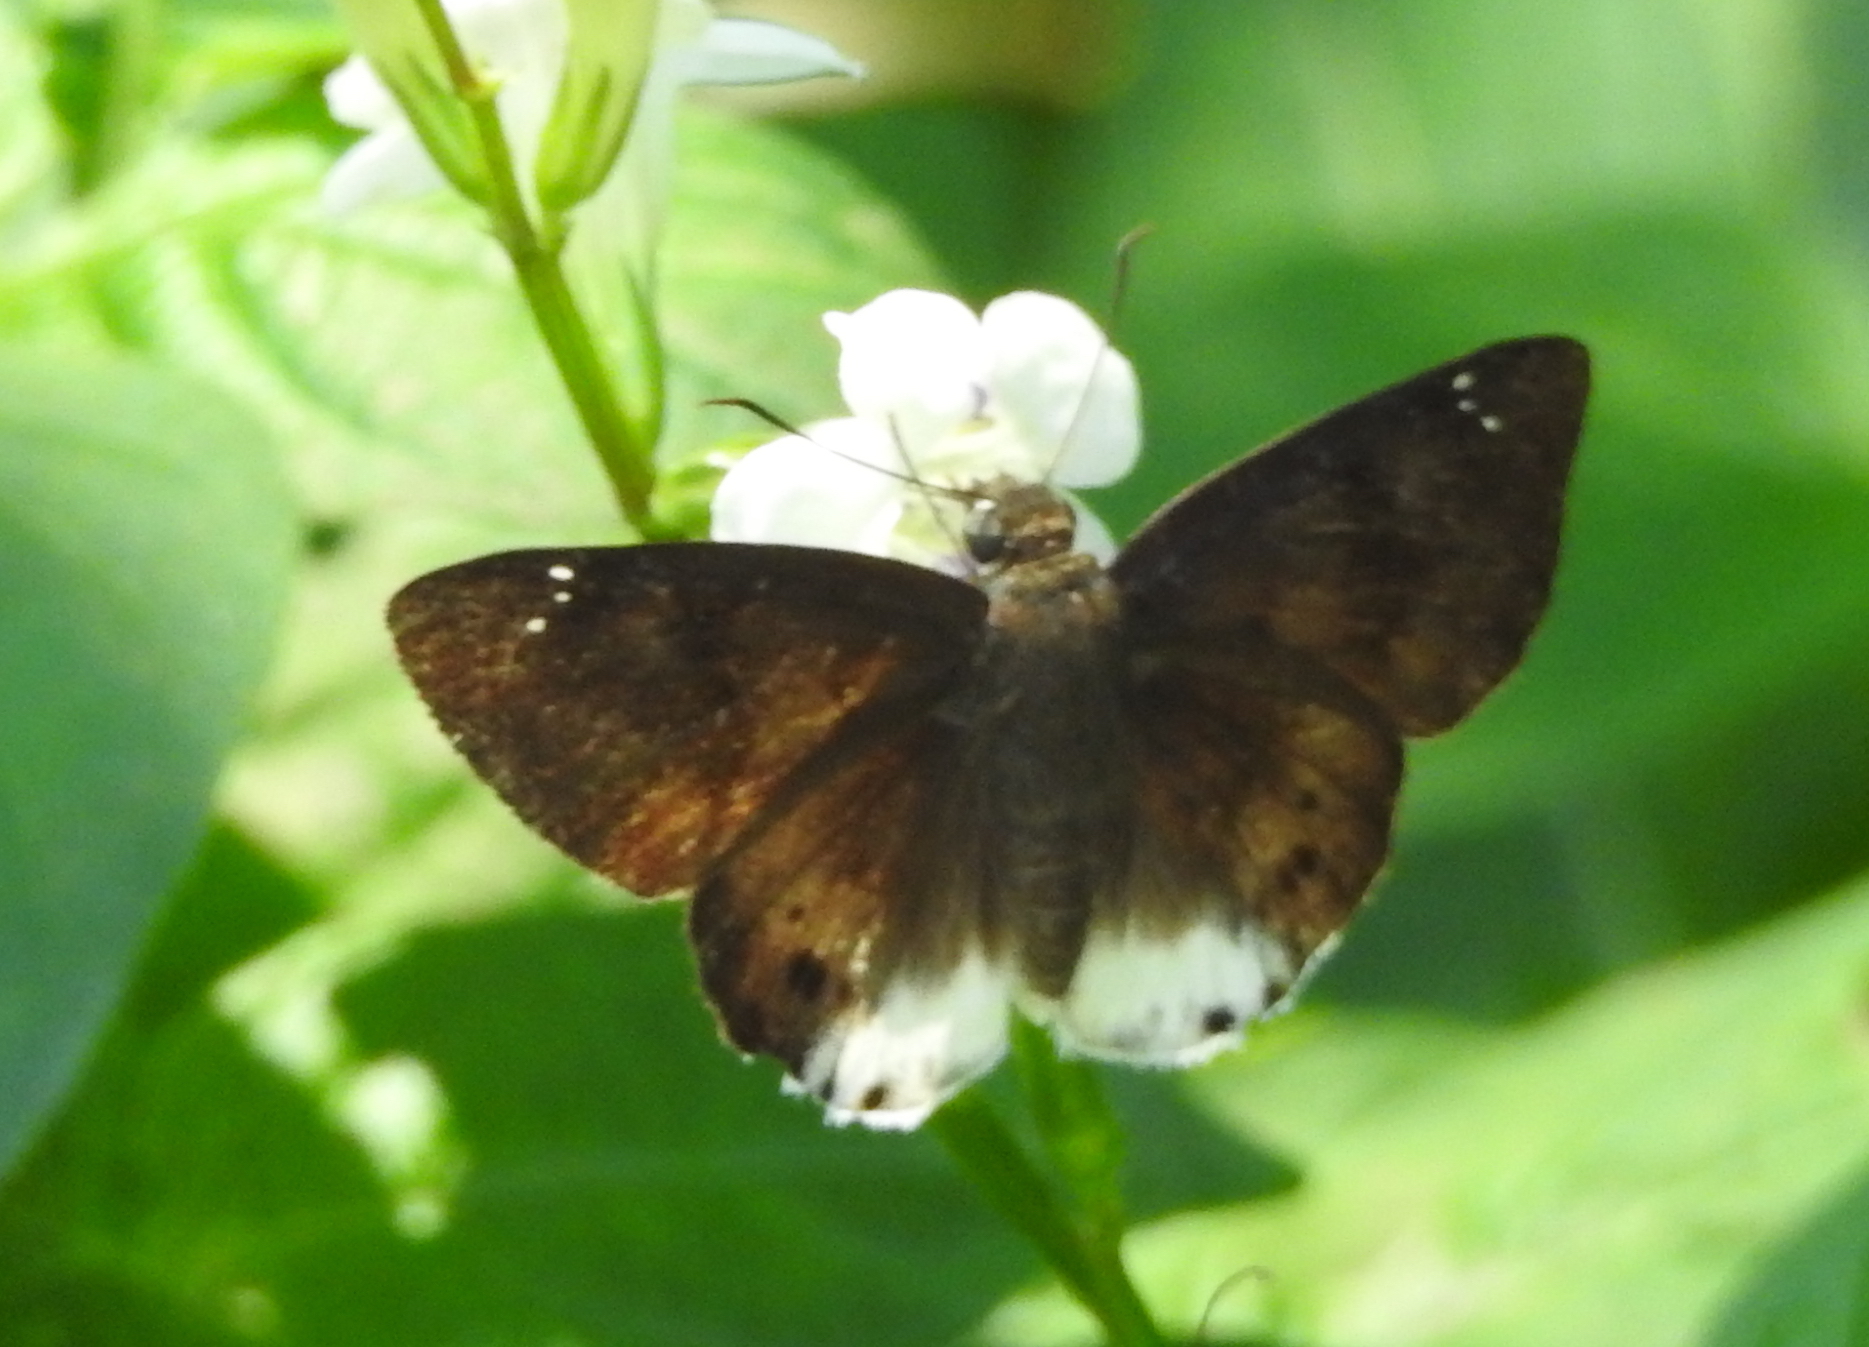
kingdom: Animalia
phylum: Arthropoda
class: Insecta
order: Lepidoptera
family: Hesperiidae
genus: Tagiades
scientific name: Tagiades gana
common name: Suffused snow flat
